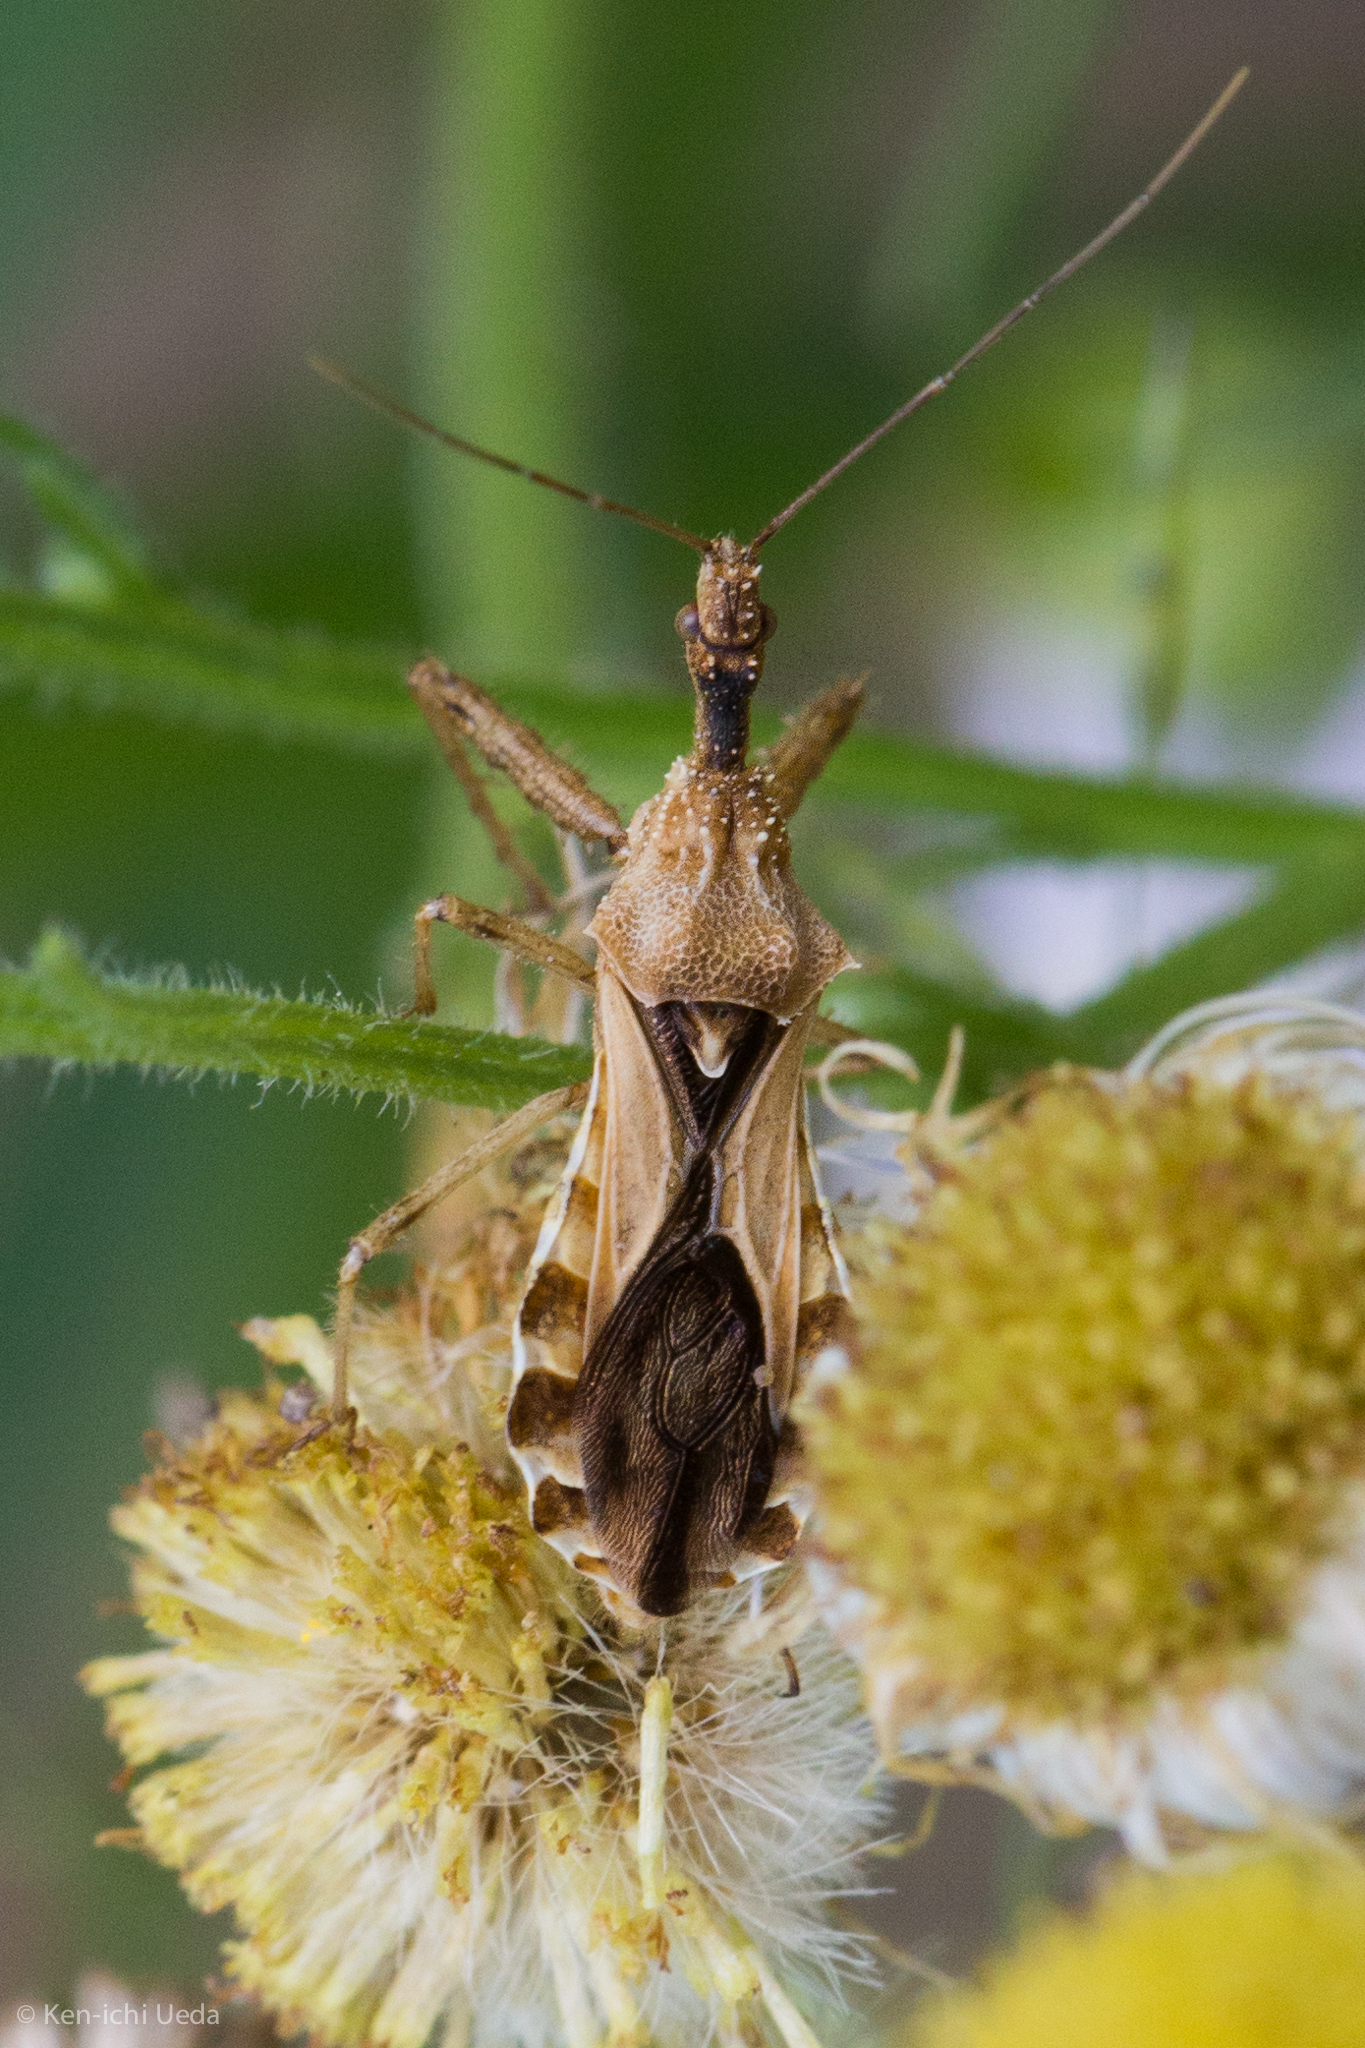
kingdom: Animalia
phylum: Arthropoda
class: Insecta
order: Hemiptera
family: Reduviidae
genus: Sinea
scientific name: Sinea confusa
